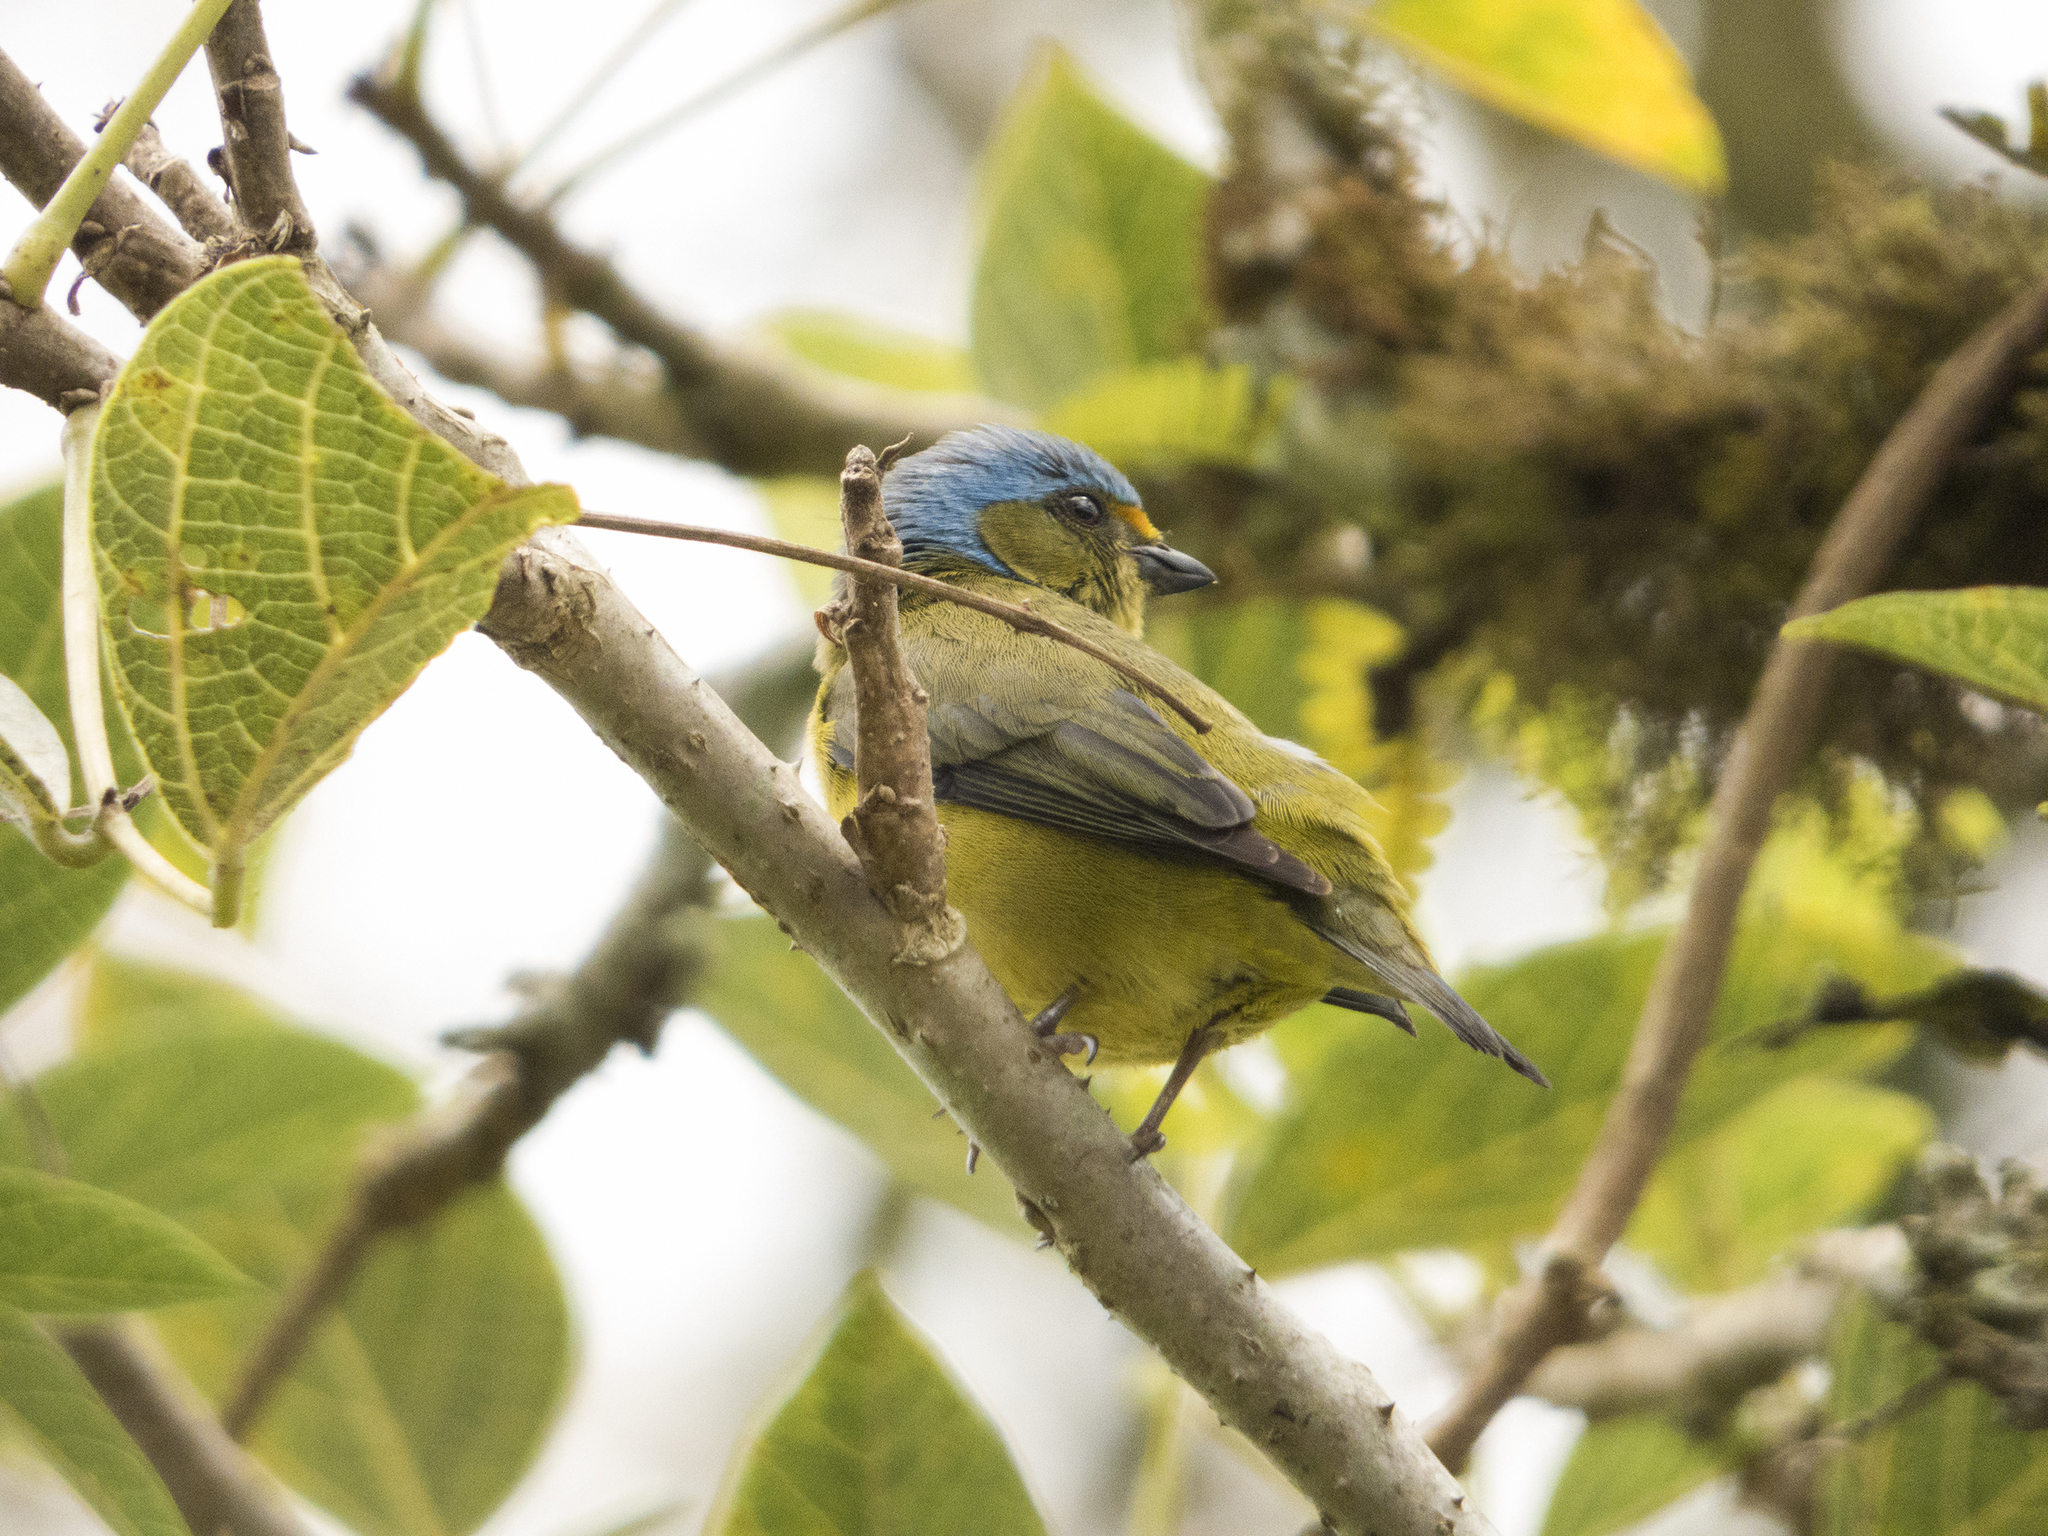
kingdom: Animalia
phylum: Chordata
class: Aves
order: Passeriformes
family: Fringillidae
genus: Euphonia
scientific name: Euphonia cyanocephala
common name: Golden-rumped euphonia
